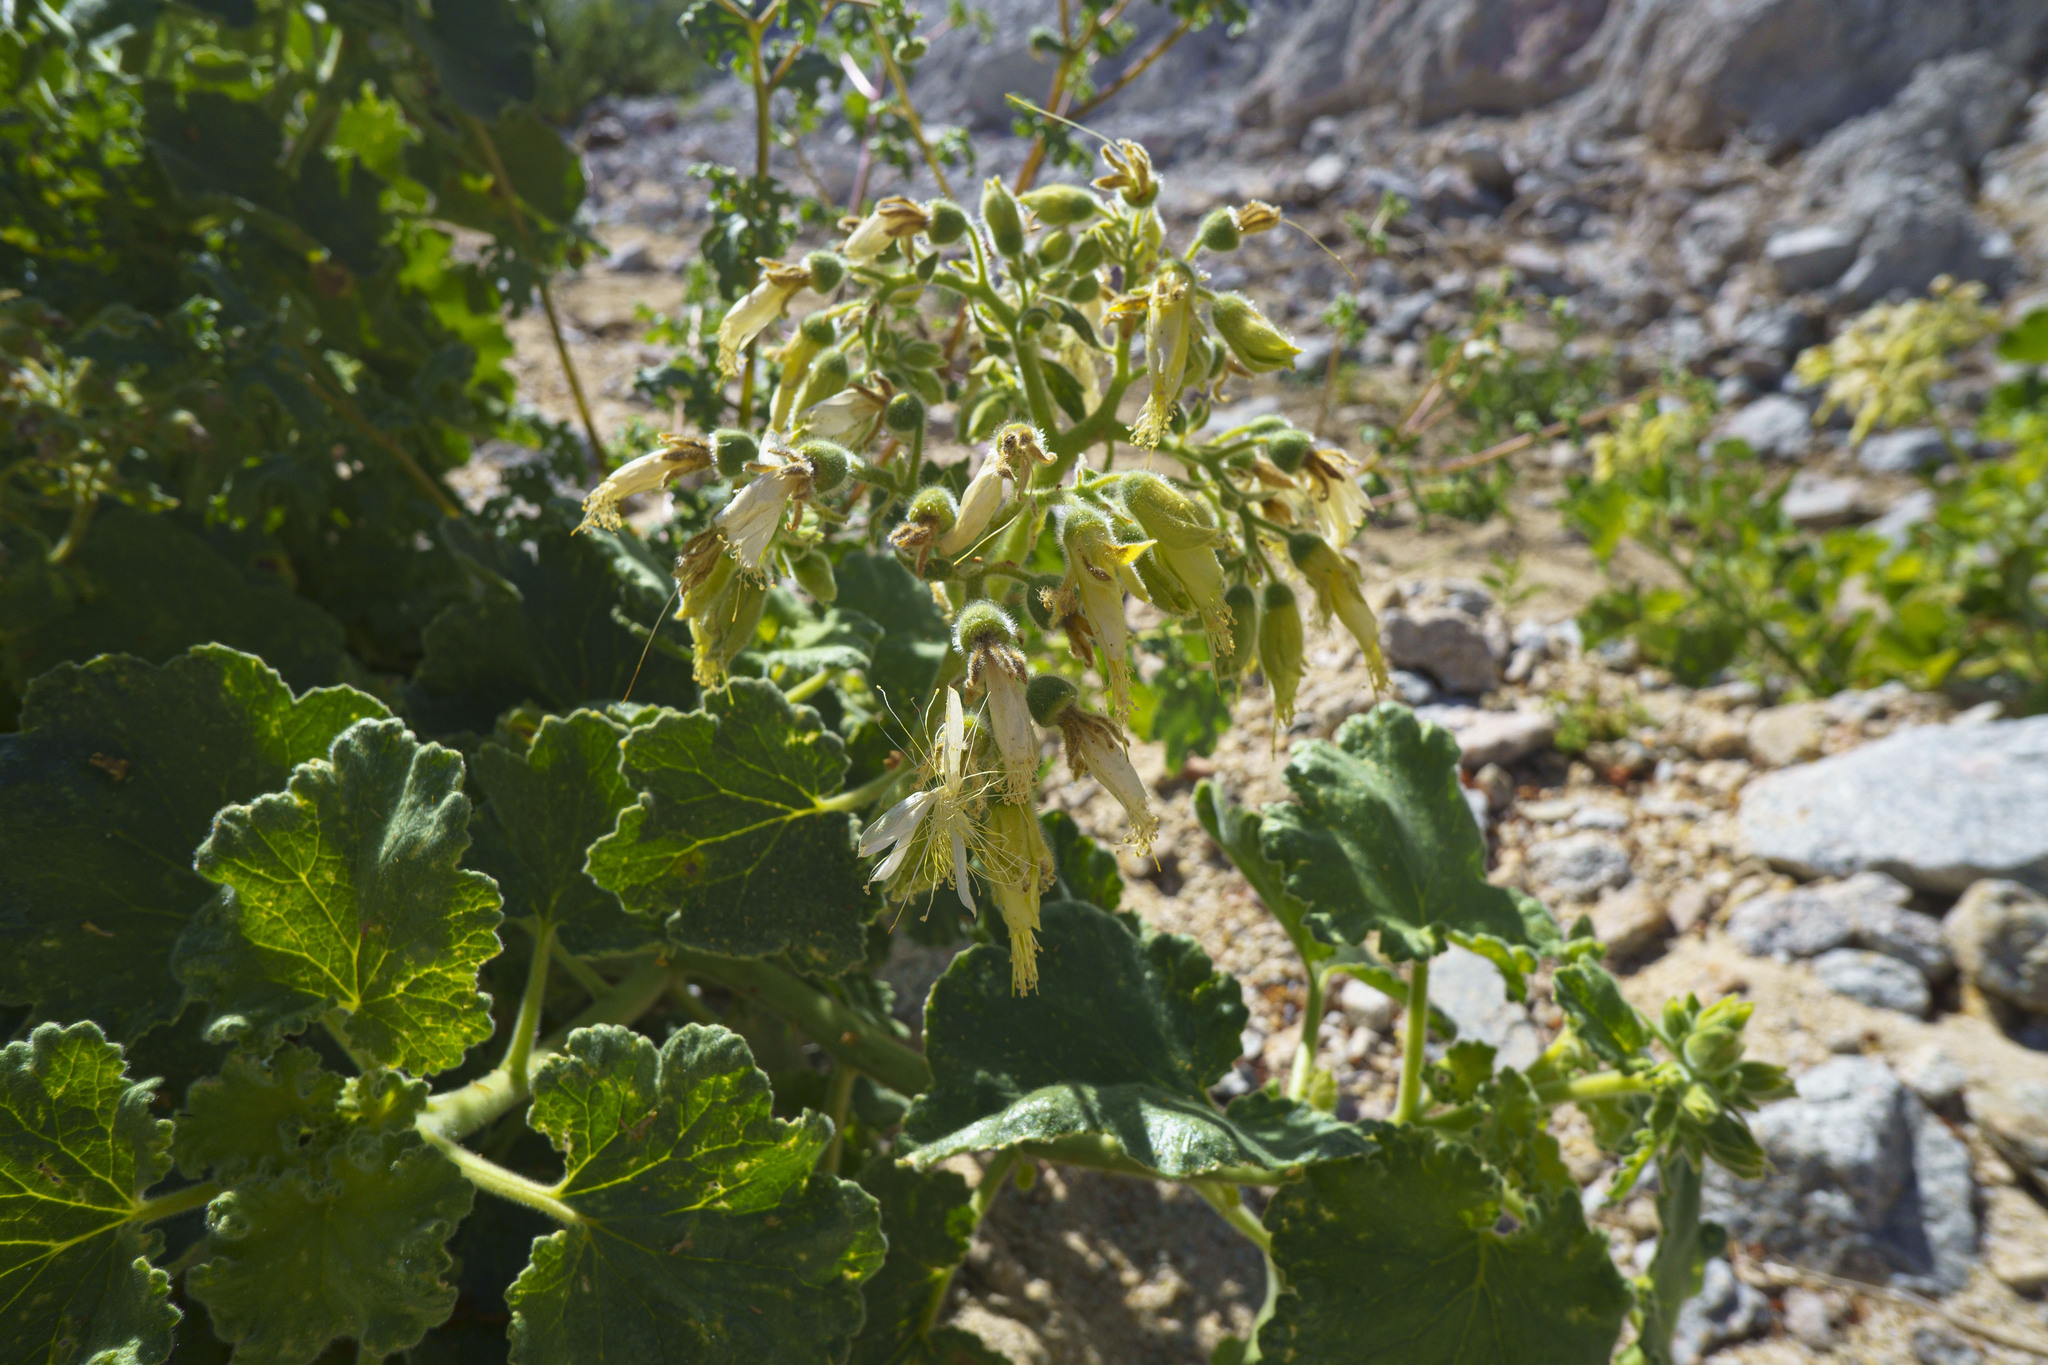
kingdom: Plantae
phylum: Tracheophyta
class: Magnoliopsida
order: Cornales
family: Loasaceae
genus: Eucnide
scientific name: Eucnide cordata
